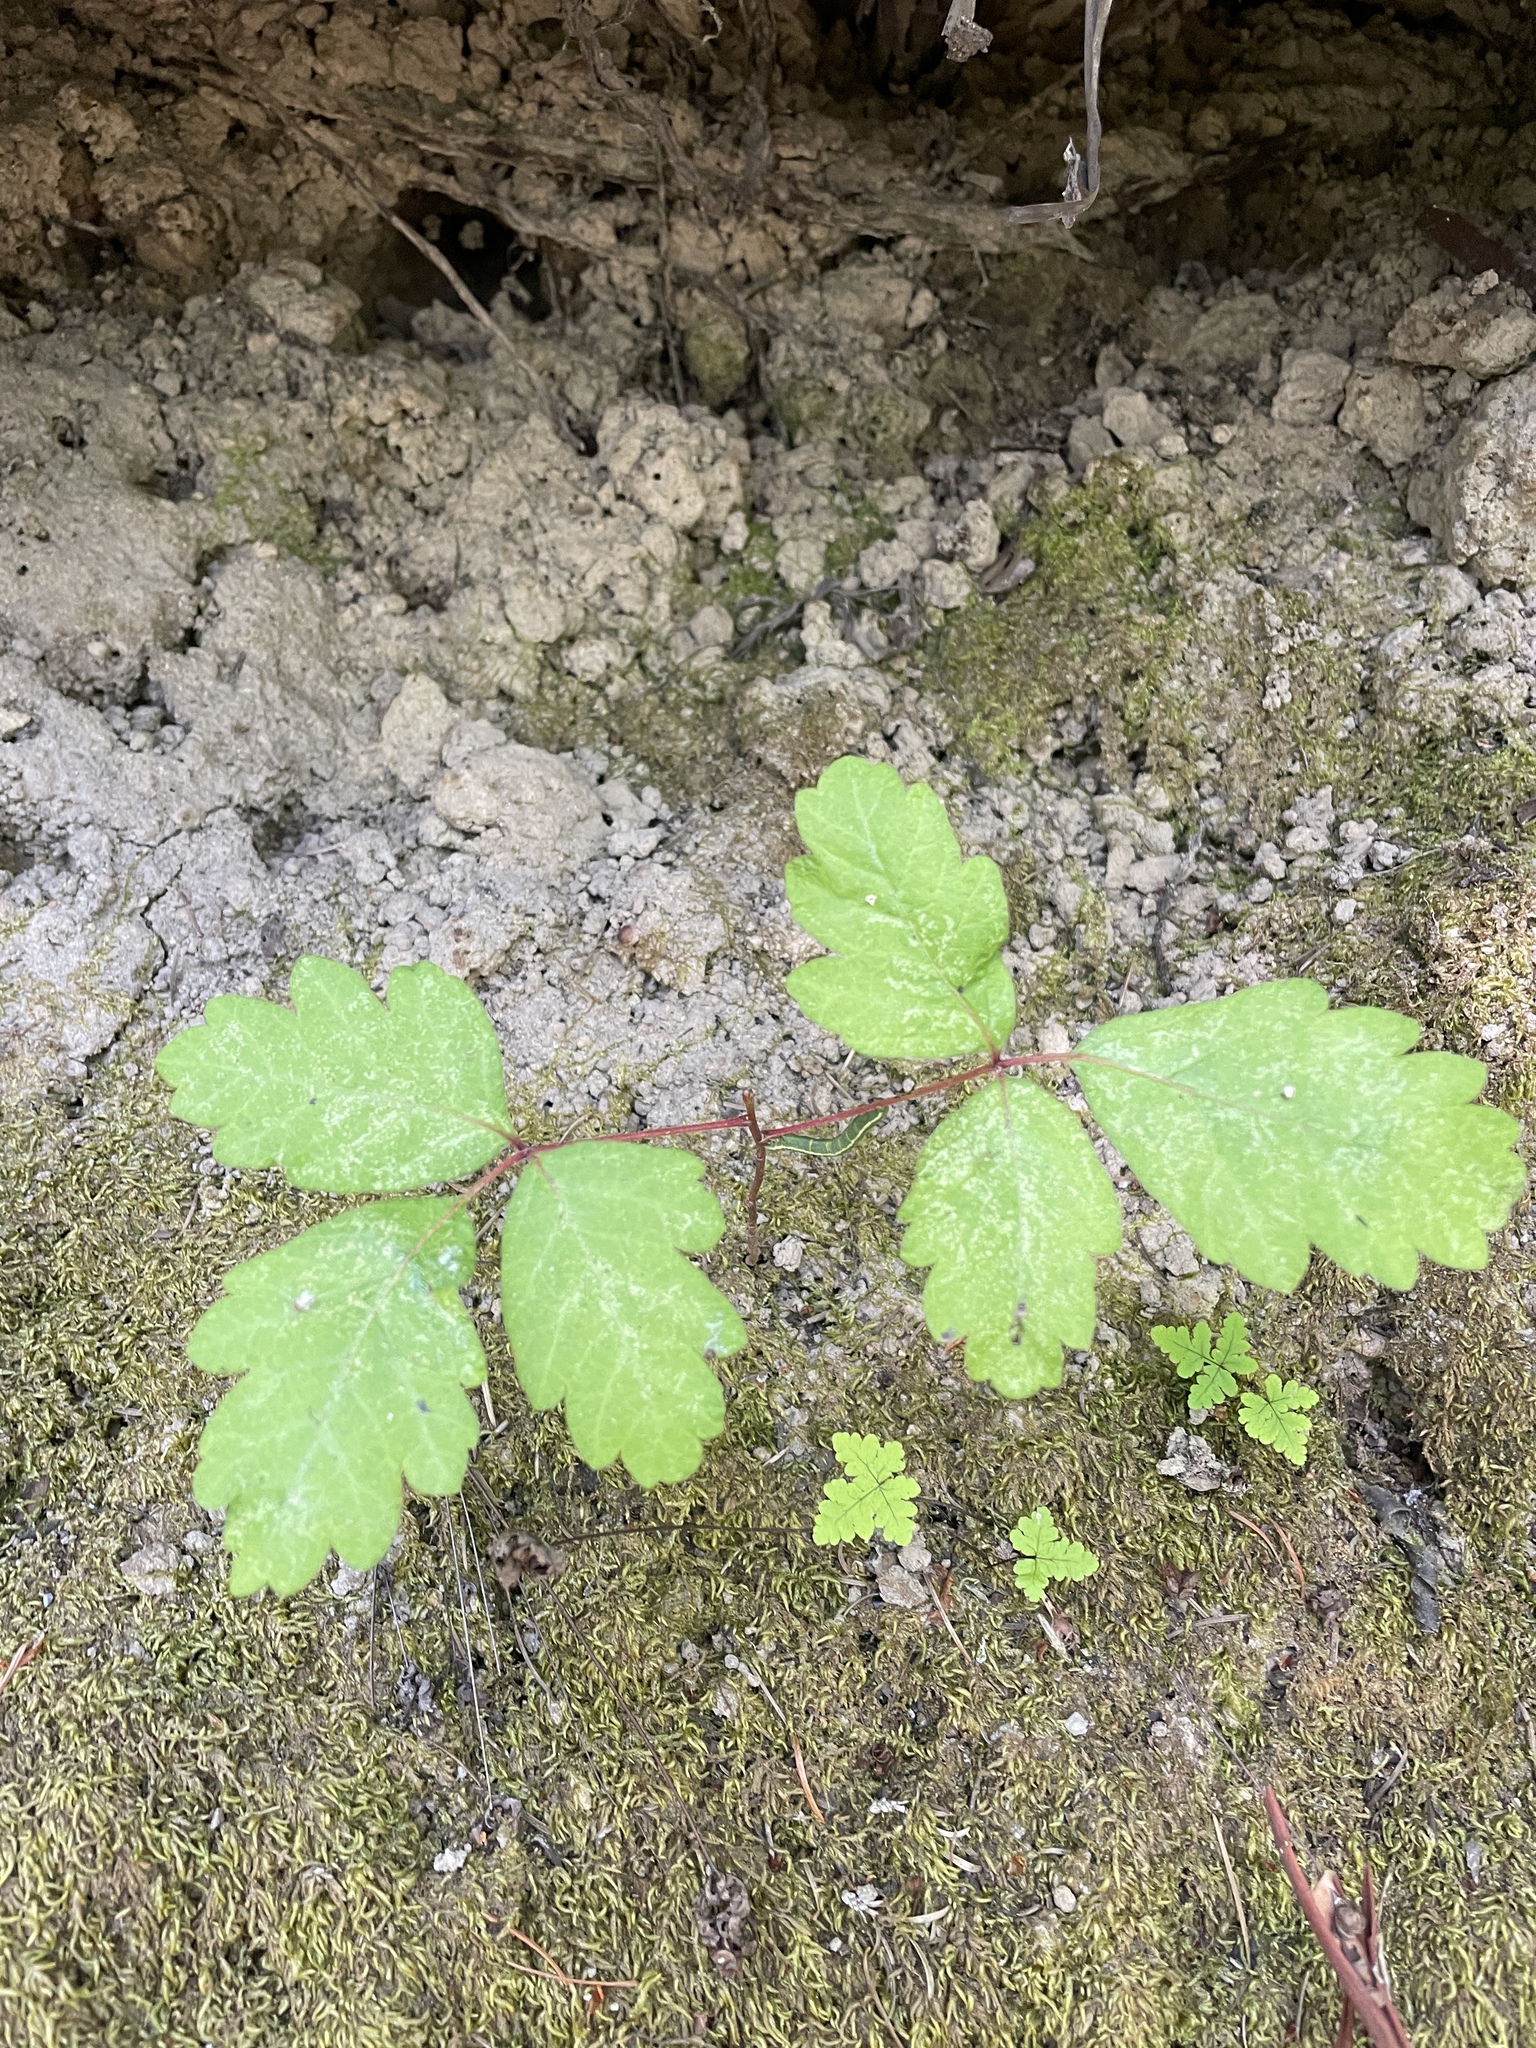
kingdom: Plantae
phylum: Tracheophyta
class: Magnoliopsida
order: Sapindales
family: Anacardiaceae
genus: Toxicodendron
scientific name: Toxicodendron diversilobum
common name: Pacific poison-oak
